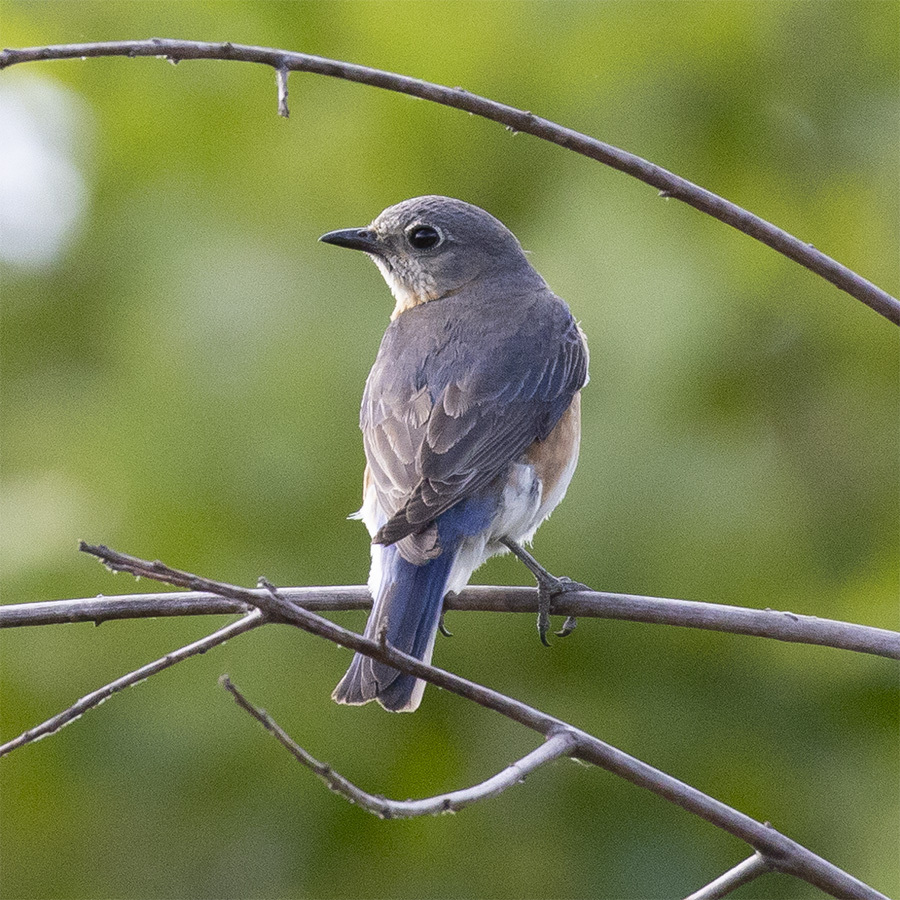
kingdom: Animalia
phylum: Chordata
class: Aves
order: Passeriformes
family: Turdidae
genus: Sialia
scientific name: Sialia sialis
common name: Eastern bluebird
